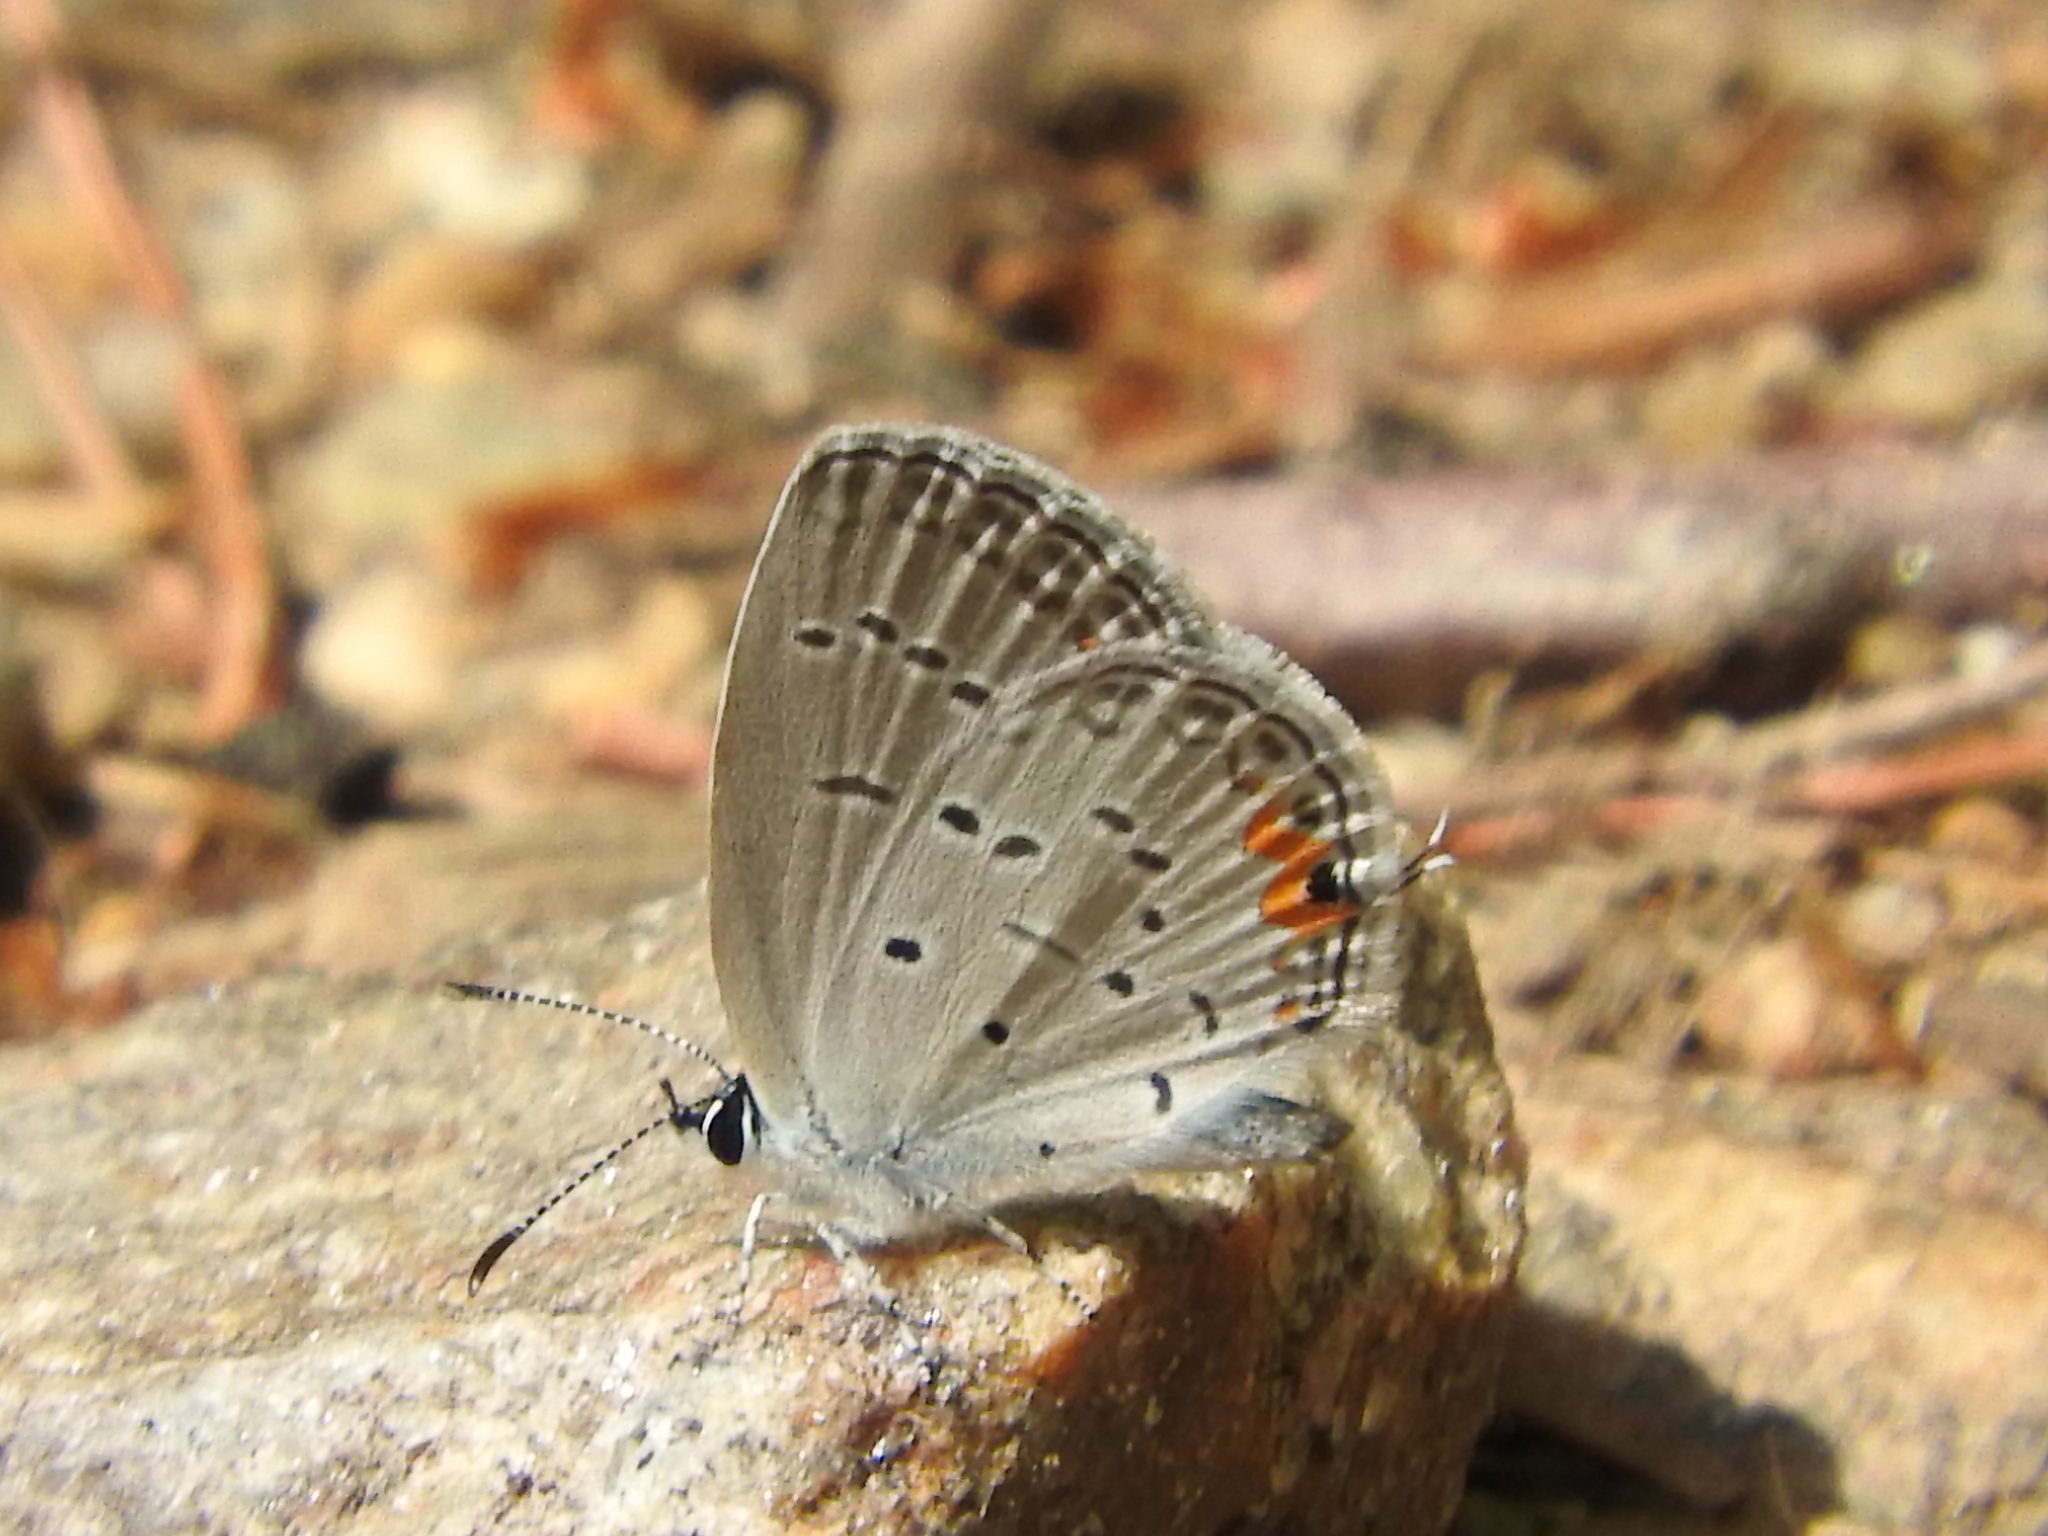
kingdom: Animalia
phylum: Arthropoda
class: Insecta
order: Lepidoptera
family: Lycaenidae
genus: Elkalyce
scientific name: Elkalyce comyntas
